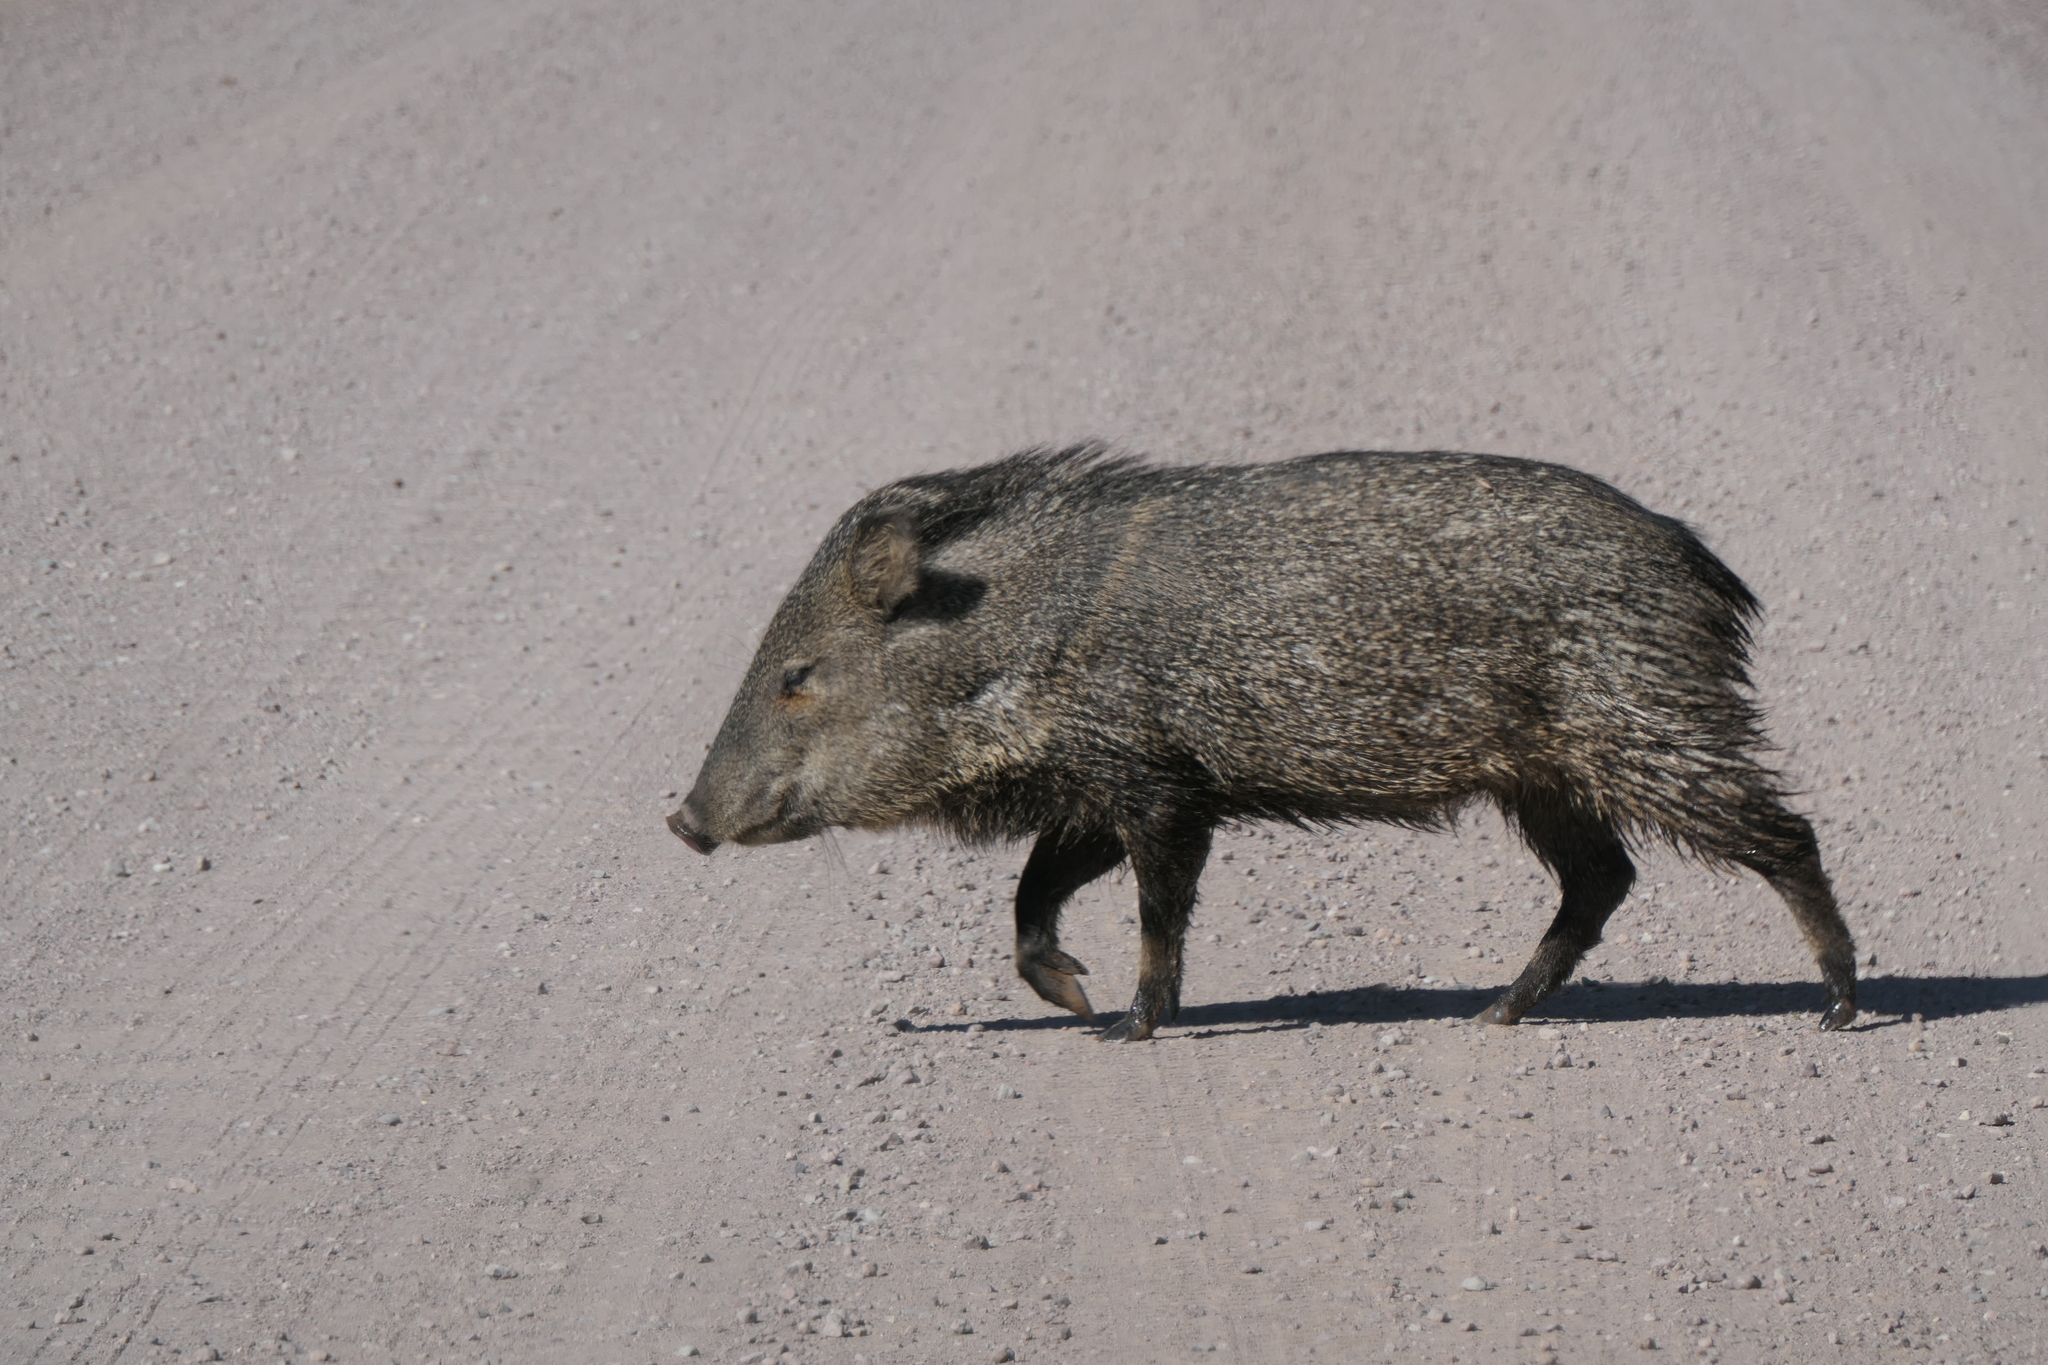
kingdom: Animalia
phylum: Chordata
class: Mammalia
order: Artiodactyla
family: Tayassuidae
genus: Pecari
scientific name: Pecari tajacu
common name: Collared peccary
